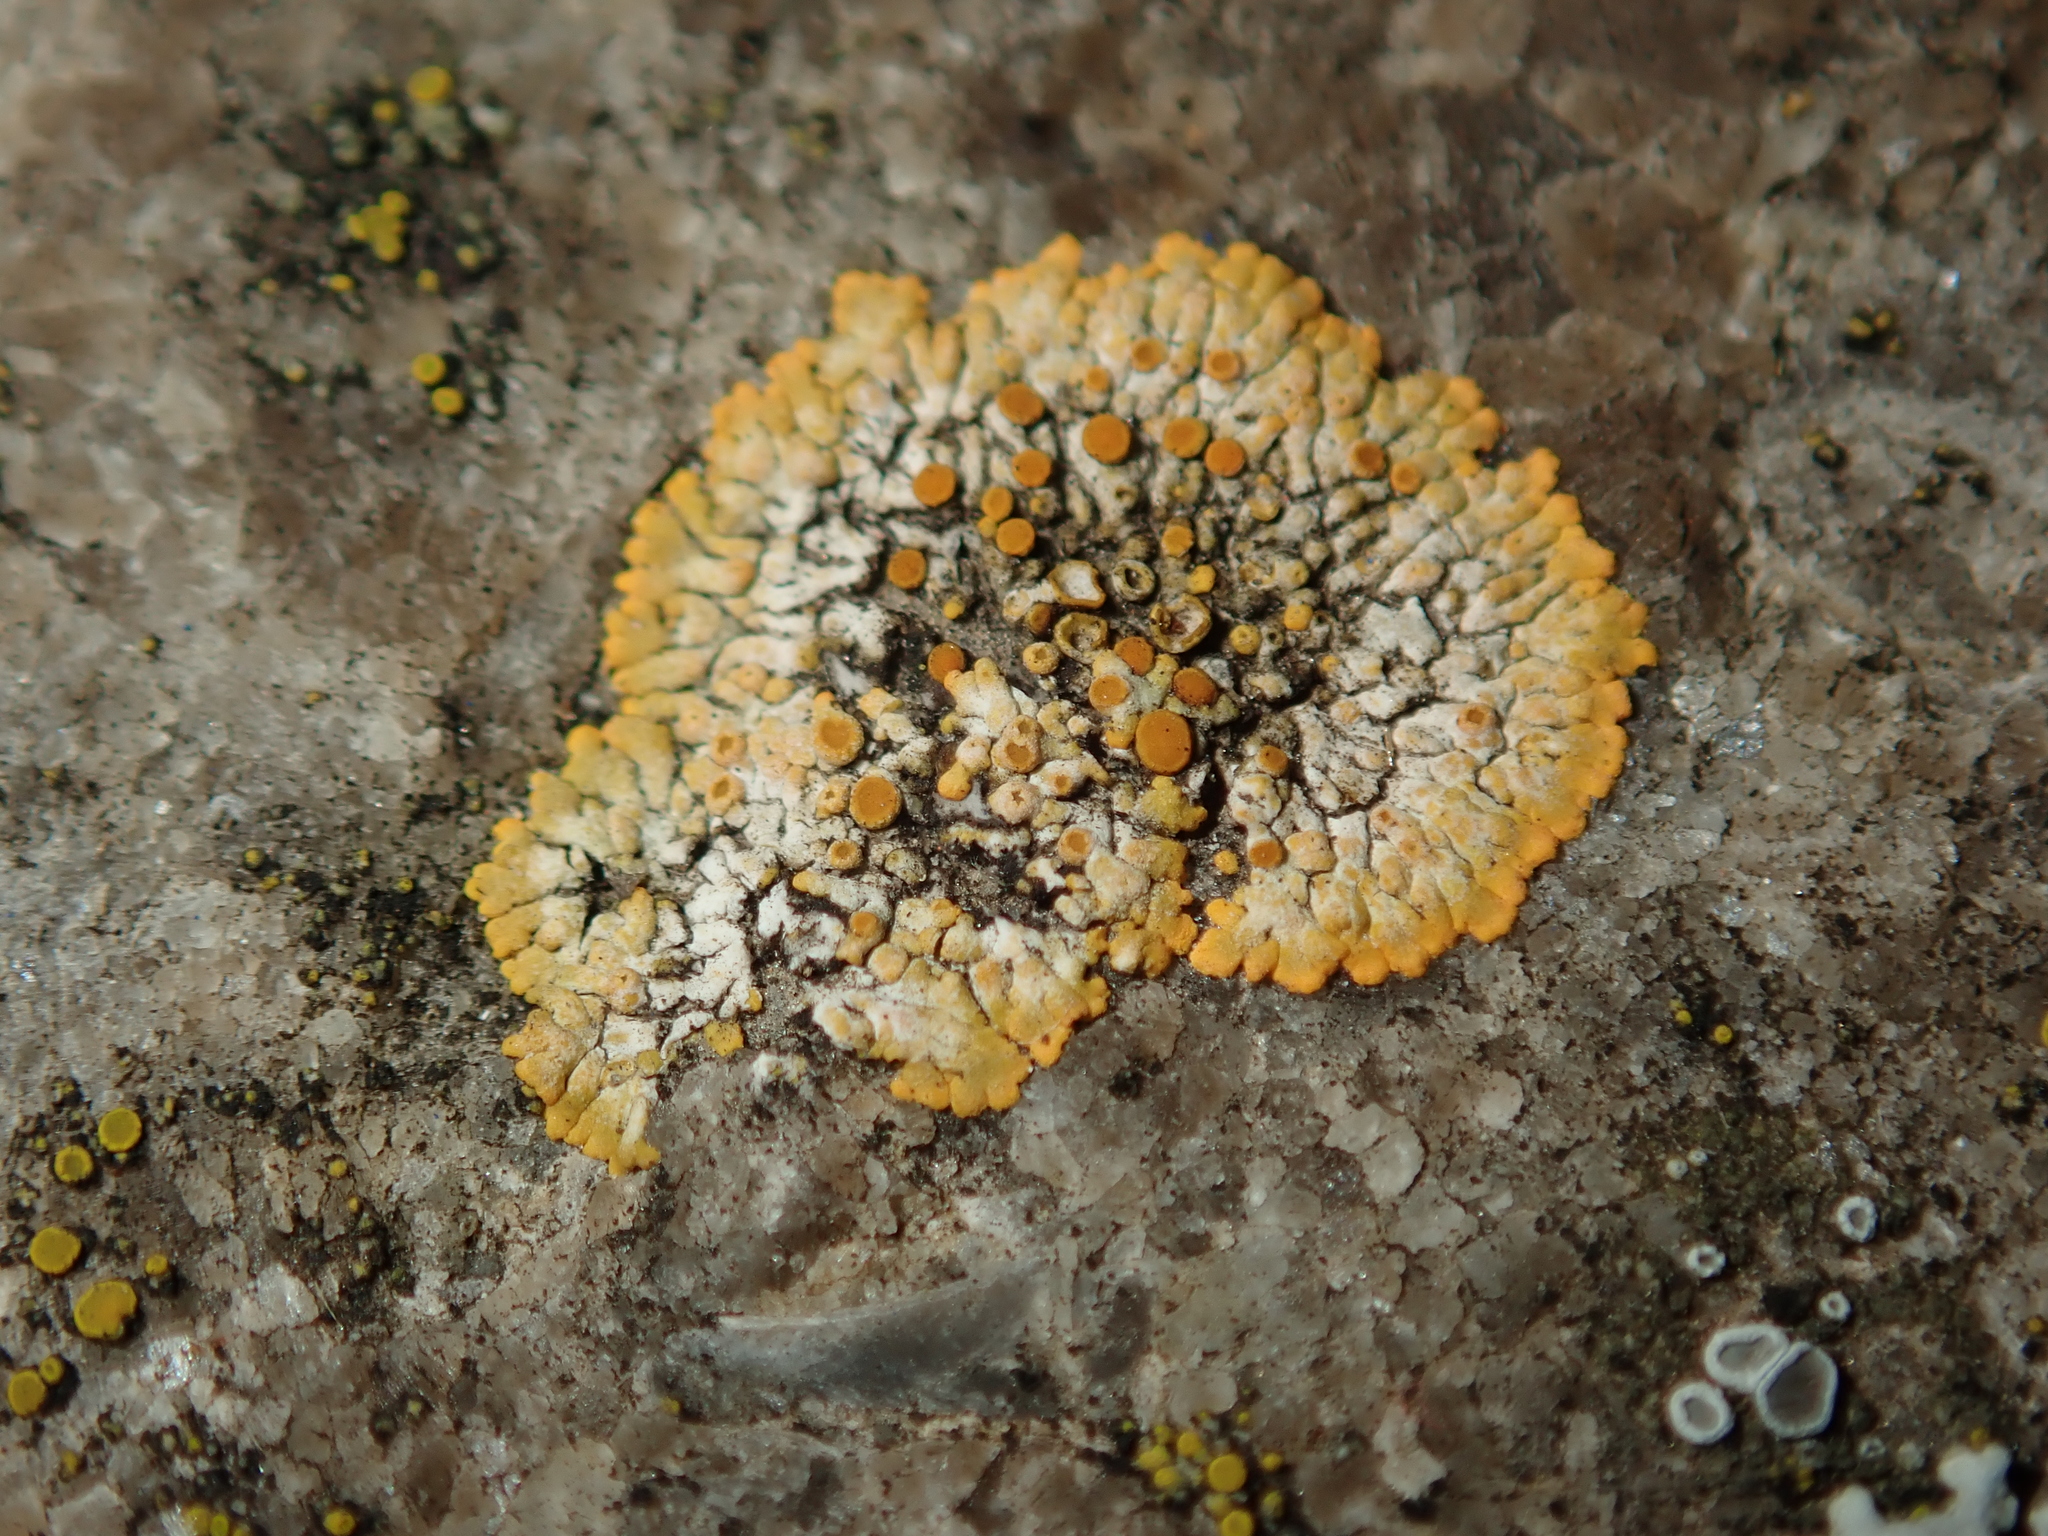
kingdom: Fungi
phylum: Ascomycota
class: Lecanoromycetes
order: Teloschistales
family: Teloschistaceae
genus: Calogaya
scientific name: Calogaya pusilla
